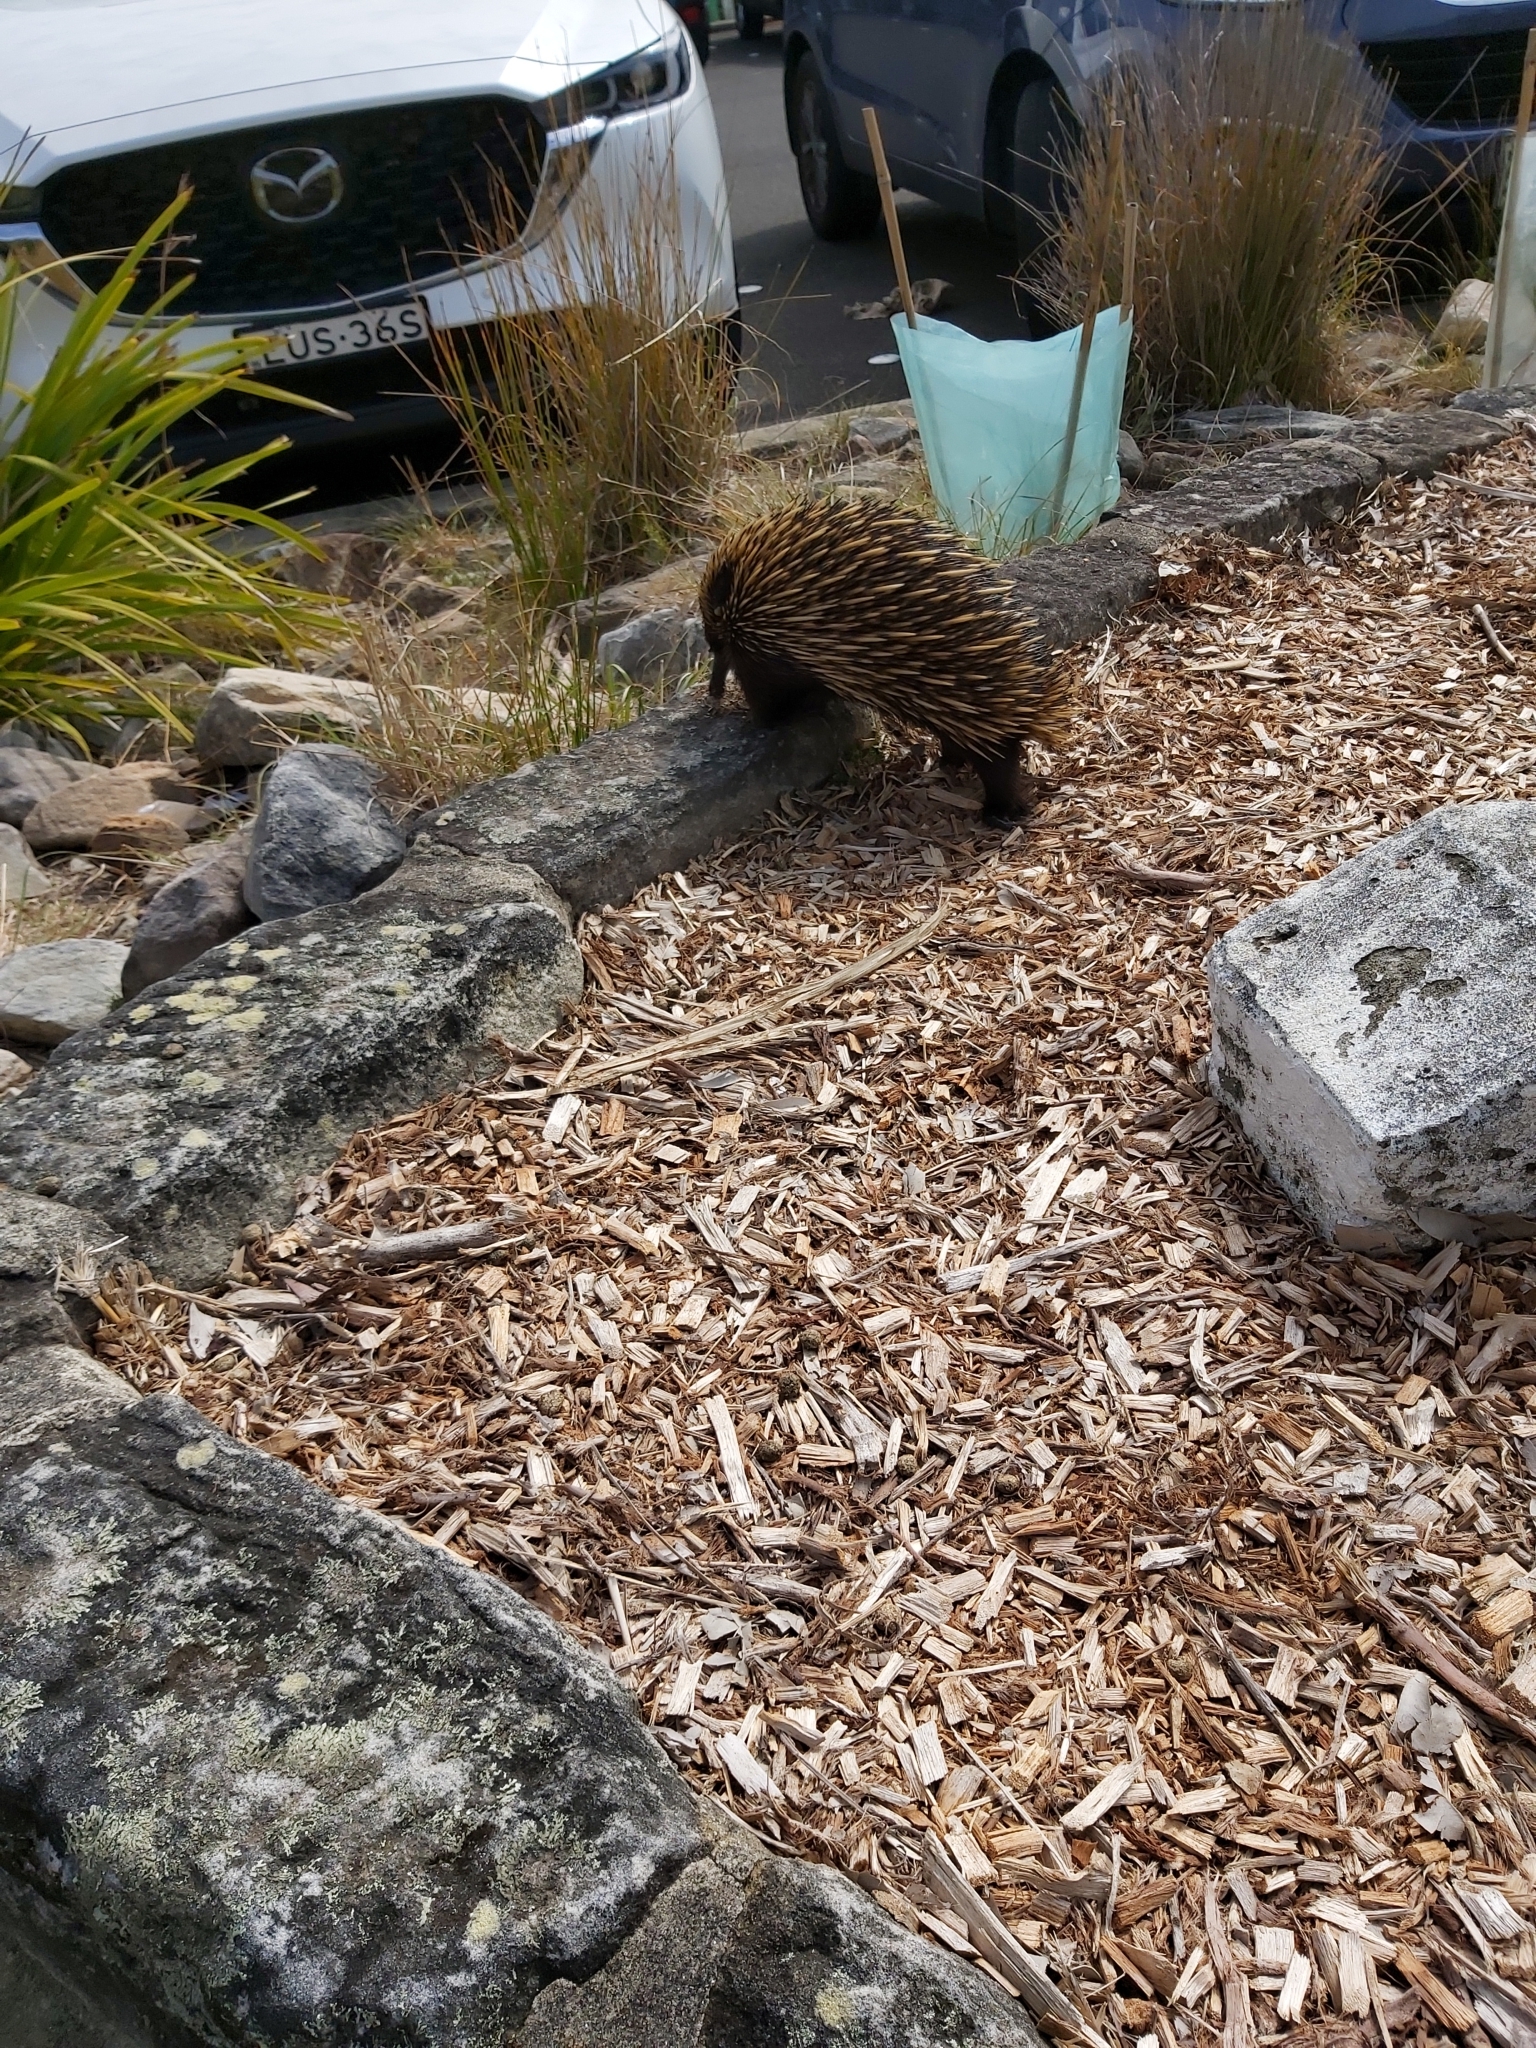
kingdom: Animalia
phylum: Chordata
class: Mammalia
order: Monotremata
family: Tachyglossidae
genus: Tachyglossus
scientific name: Tachyglossus aculeatus
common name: Short-beaked echidna
